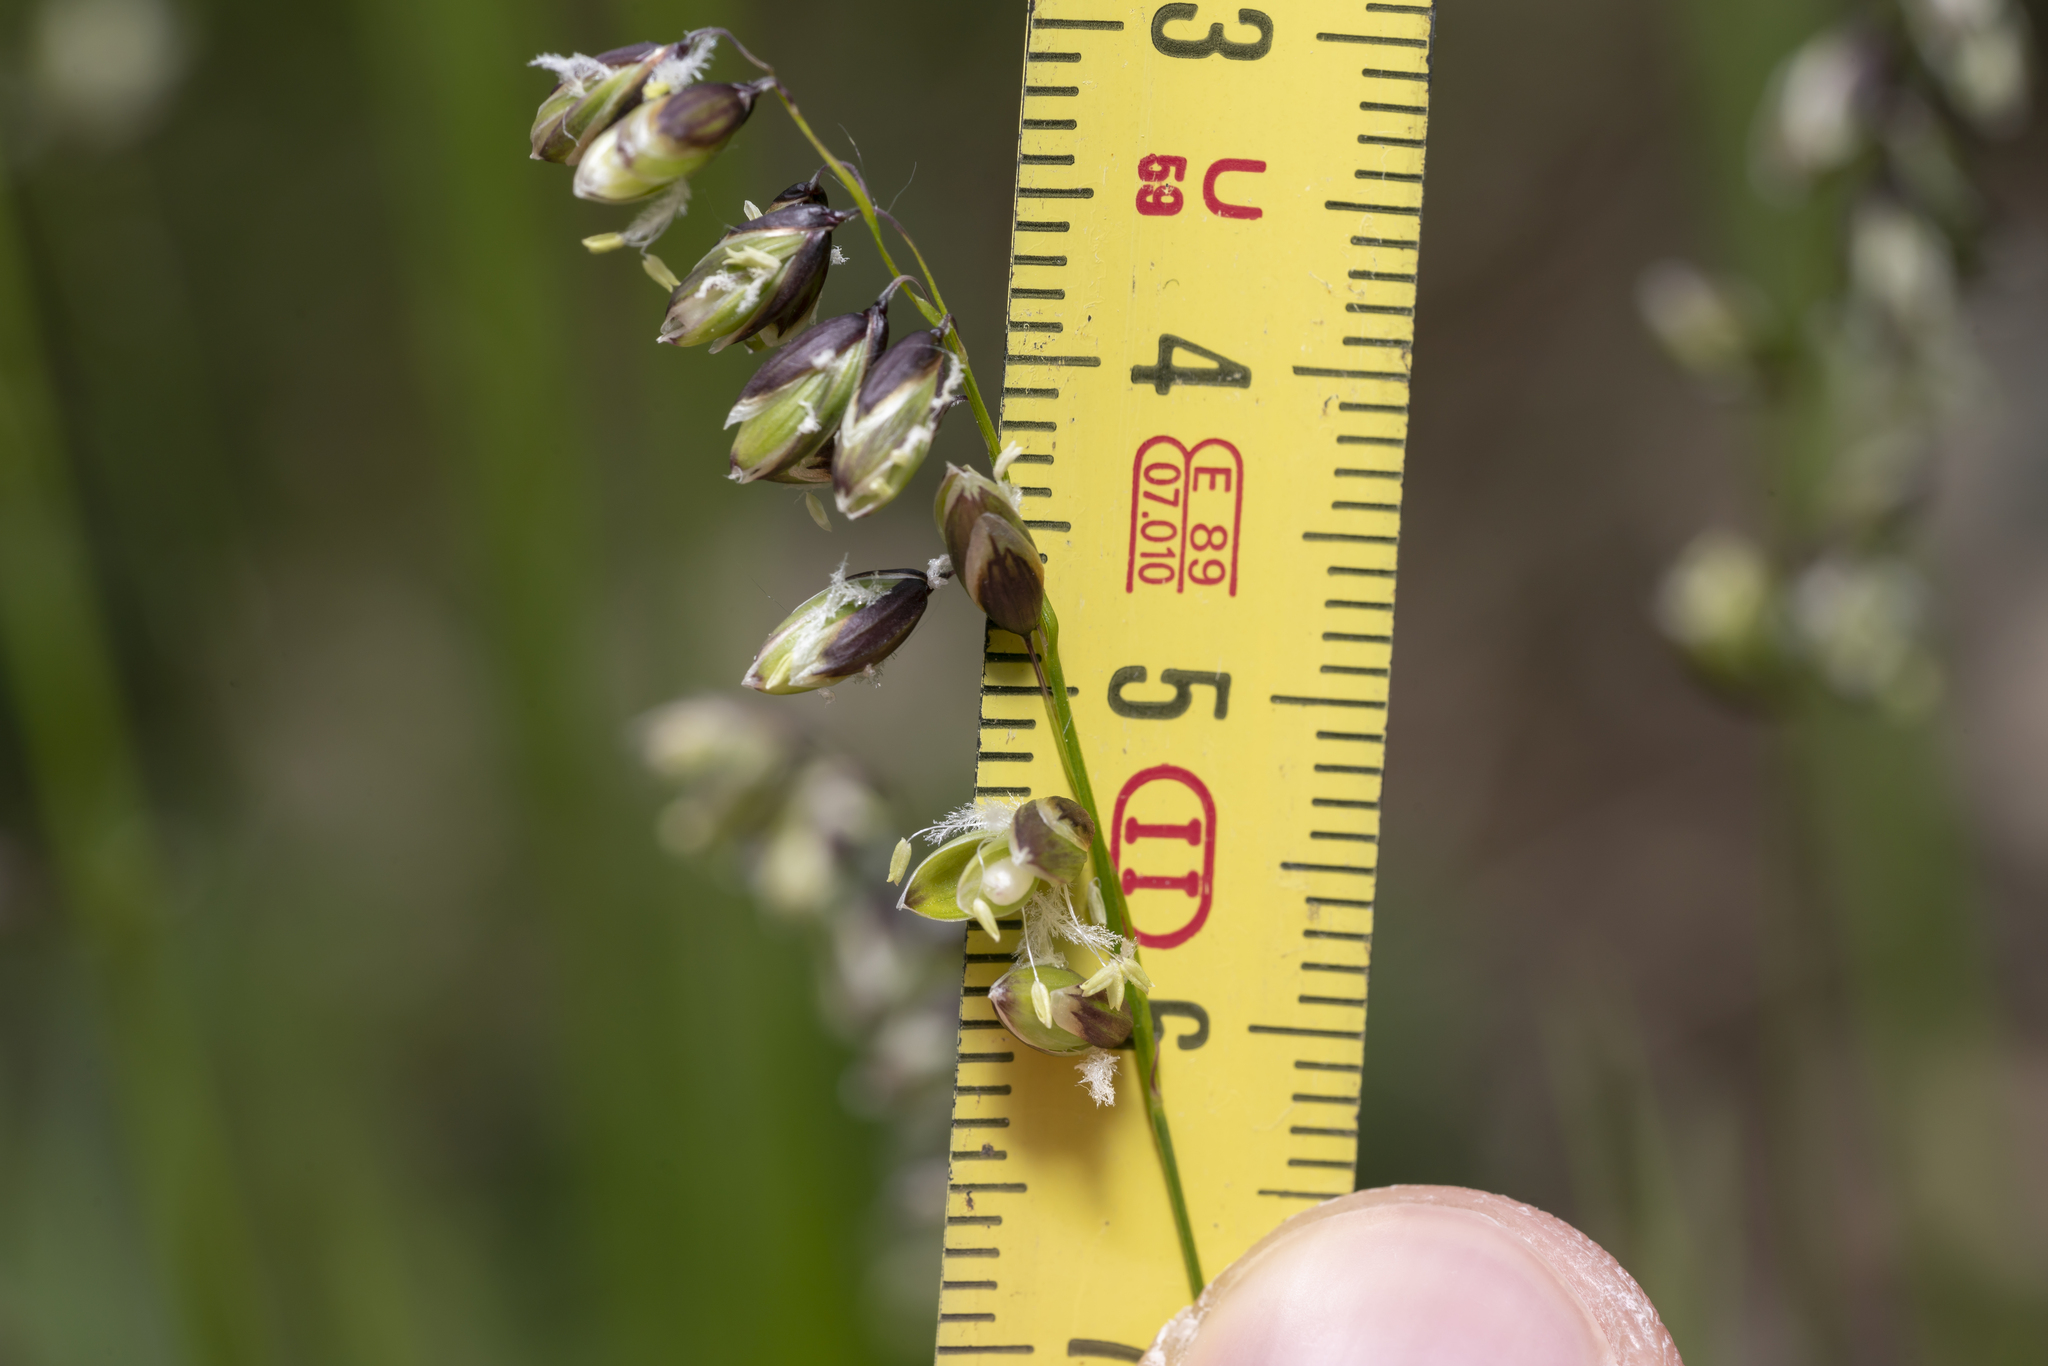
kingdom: Plantae
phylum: Tracheophyta
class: Liliopsida
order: Poales
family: Poaceae
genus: Melica
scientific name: Melica nutans
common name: Mountain melick
